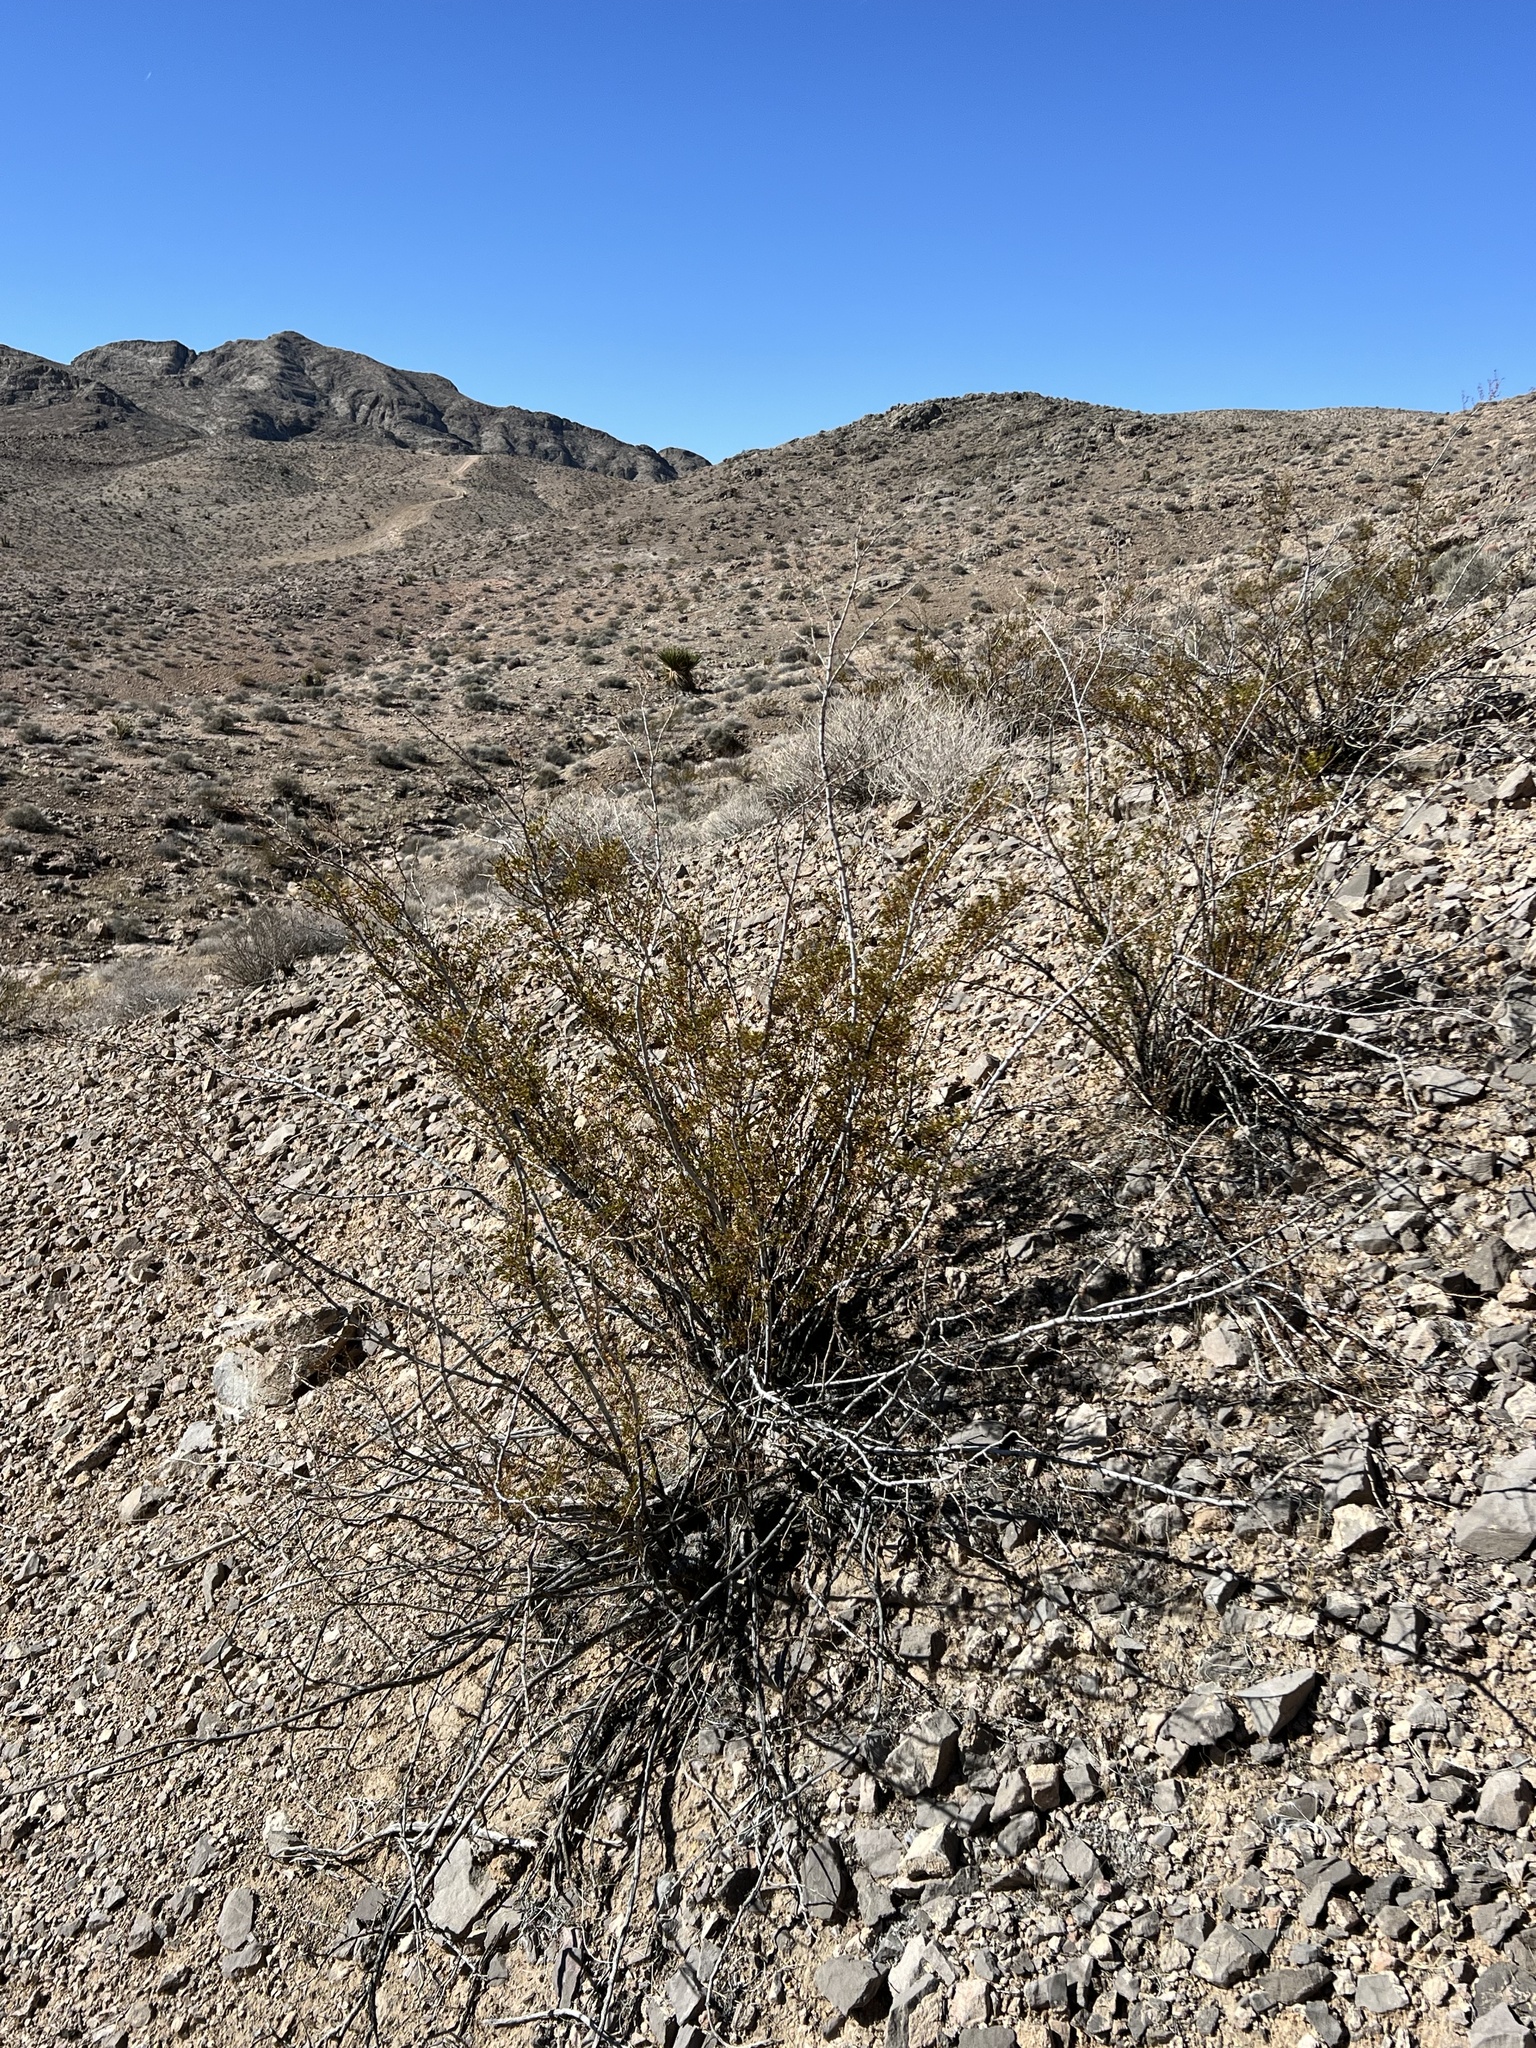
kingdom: Plantae
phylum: Tracheophyta
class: Magnoliopsida
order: Zygophyllales
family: Zygophyllaceae
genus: Larrea
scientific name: Larrea tridentata
